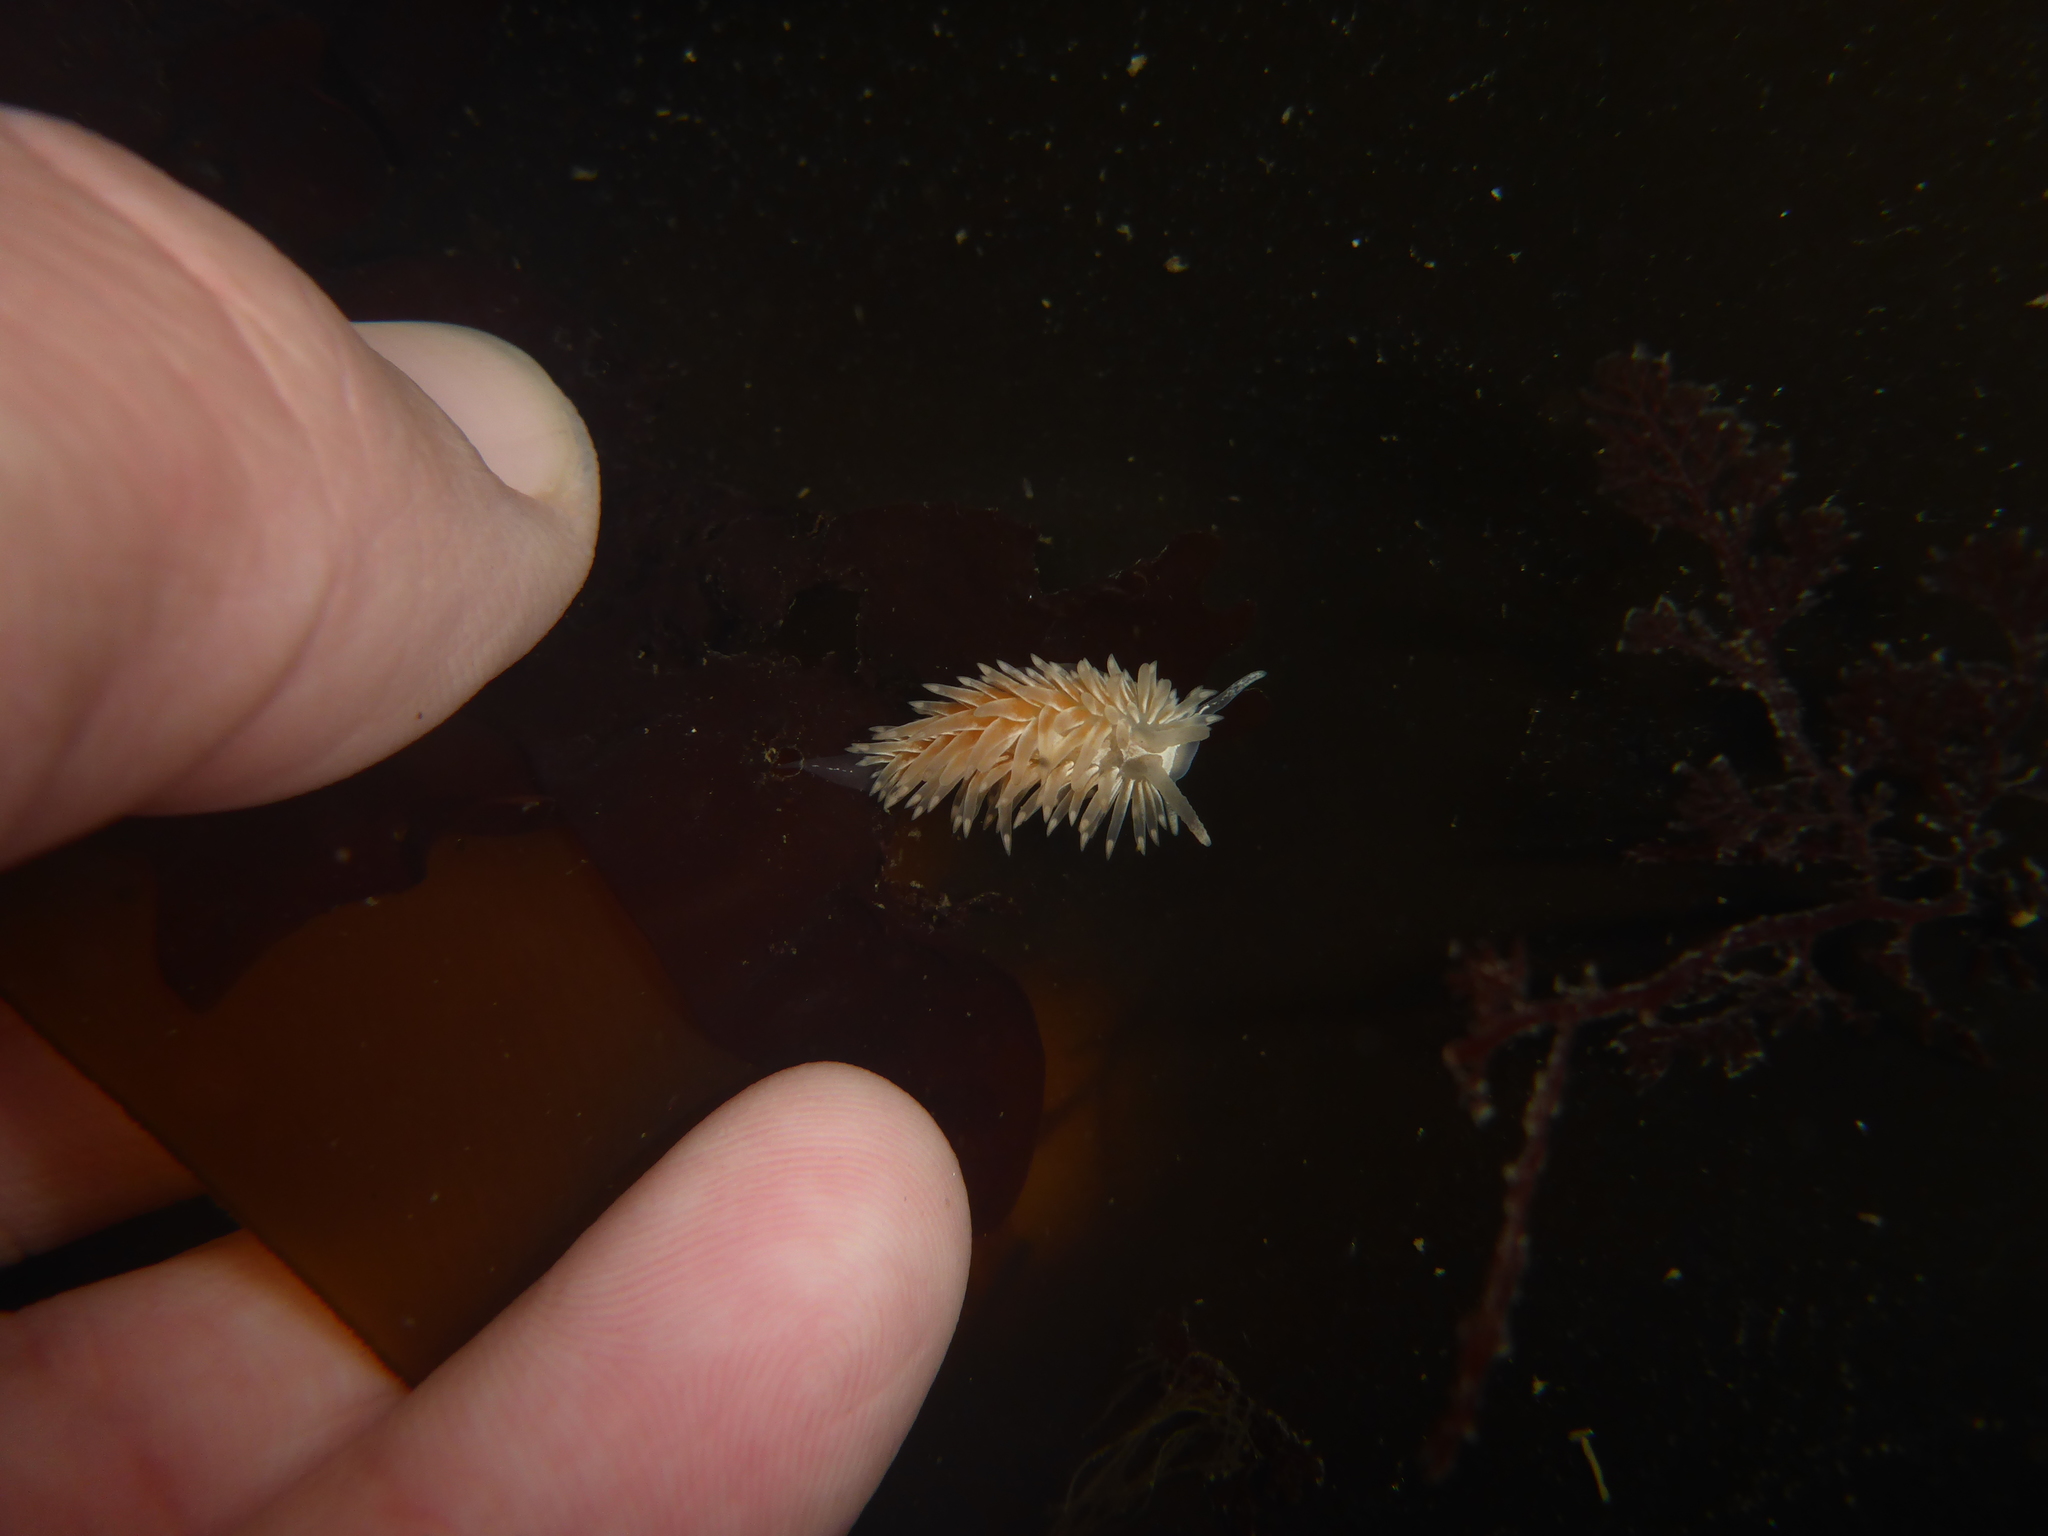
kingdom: Animalia
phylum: Mollusca
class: Gastropoda
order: Nudibranchia
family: Aeolidiidae
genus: Aeolidia
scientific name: Aeolidia loui
